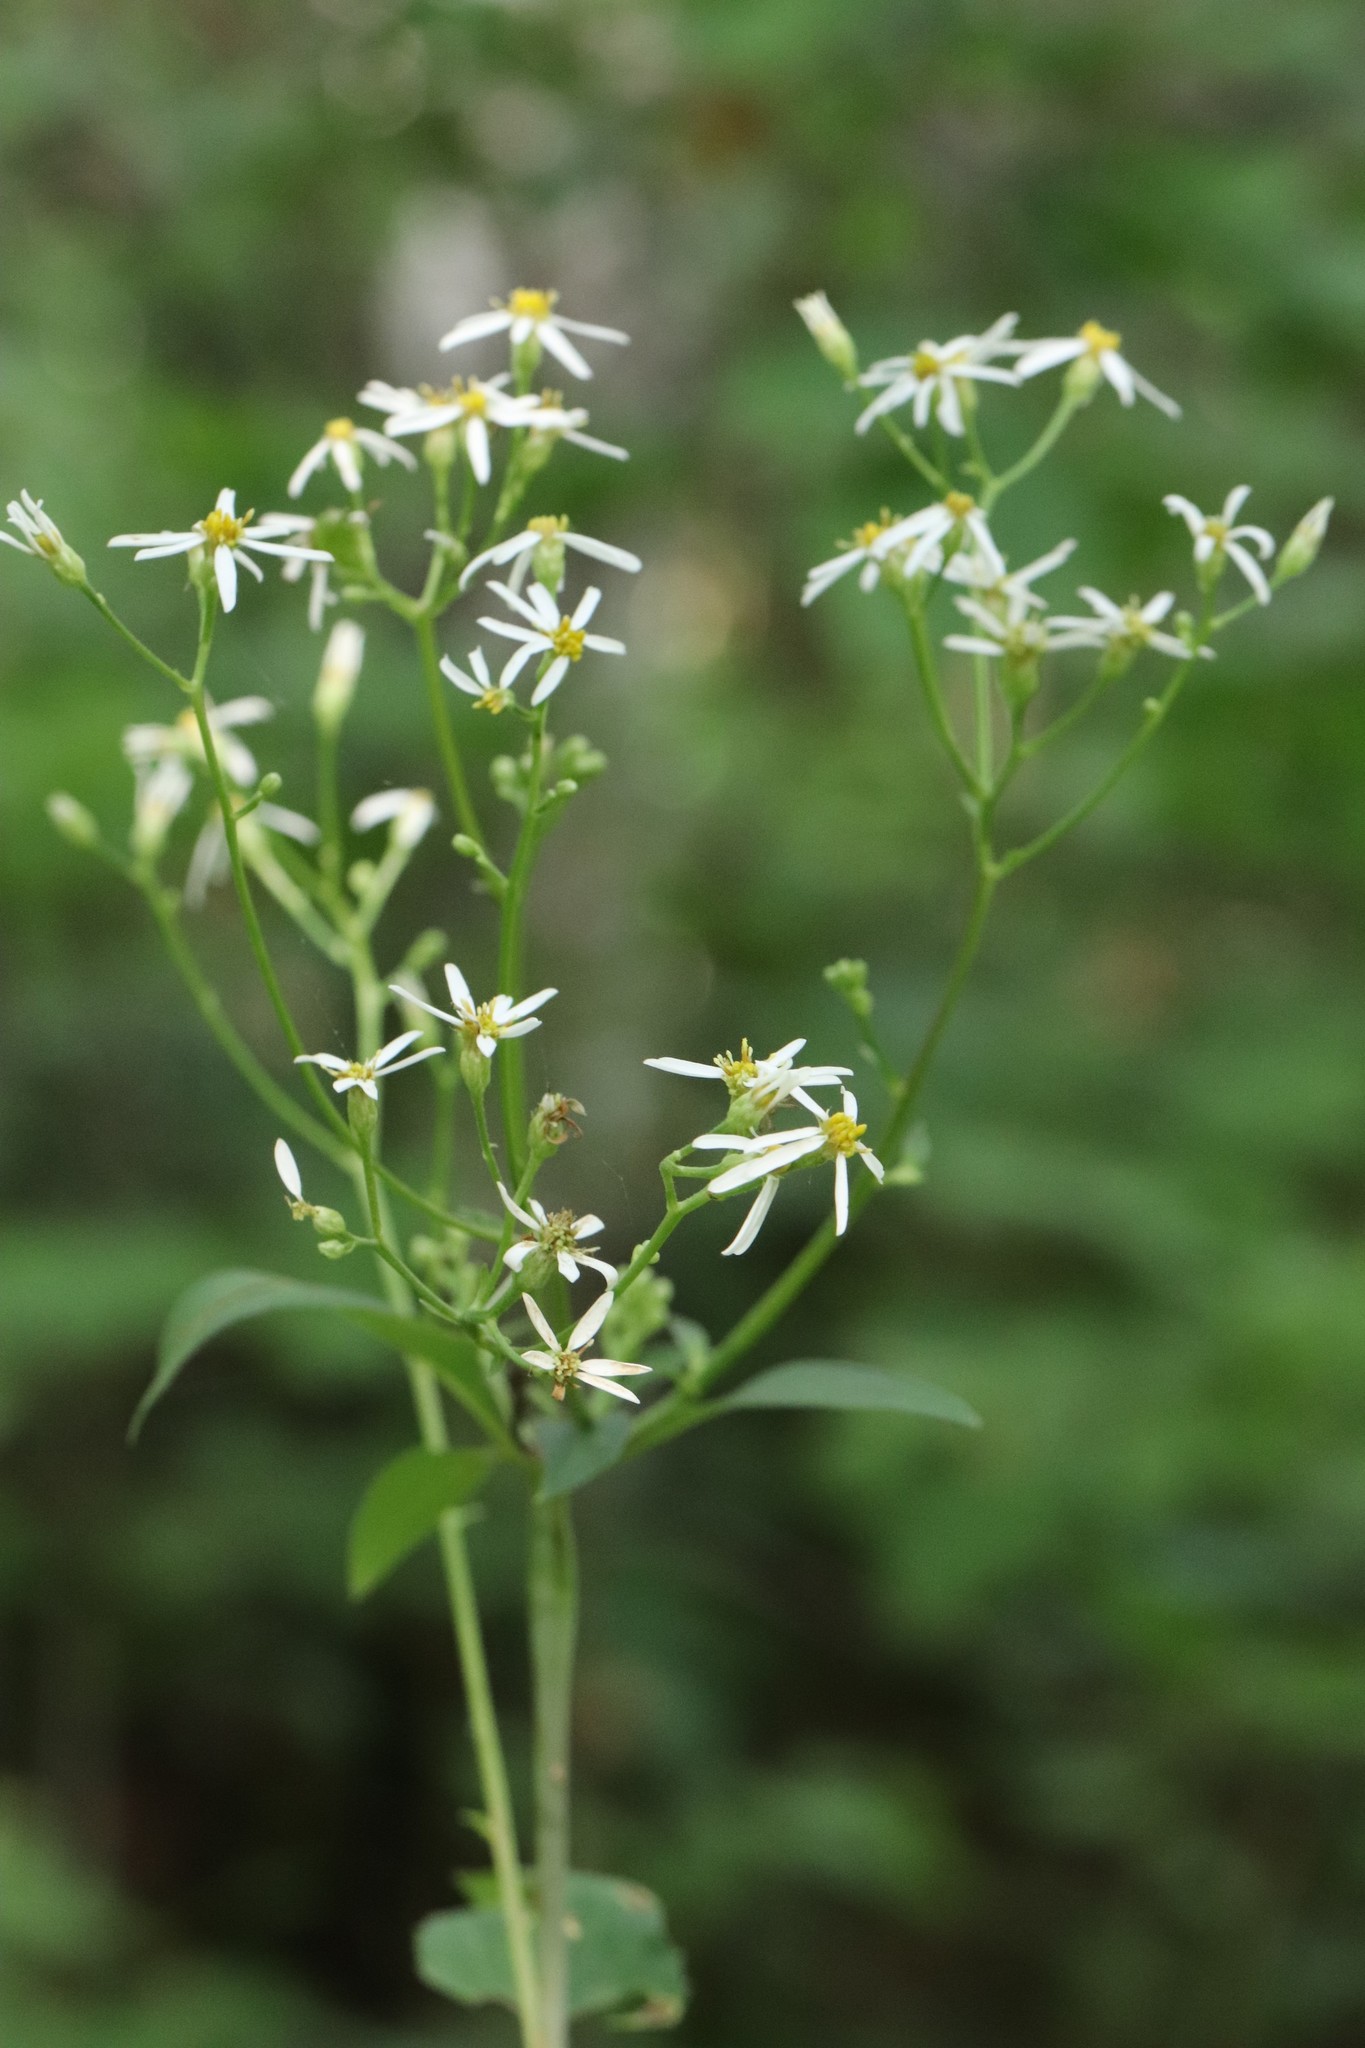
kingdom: Plantae
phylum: Tracheophyta
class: Magnoliopsida
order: Asterales
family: Asteraceae
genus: Aster
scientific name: Aster scaber
